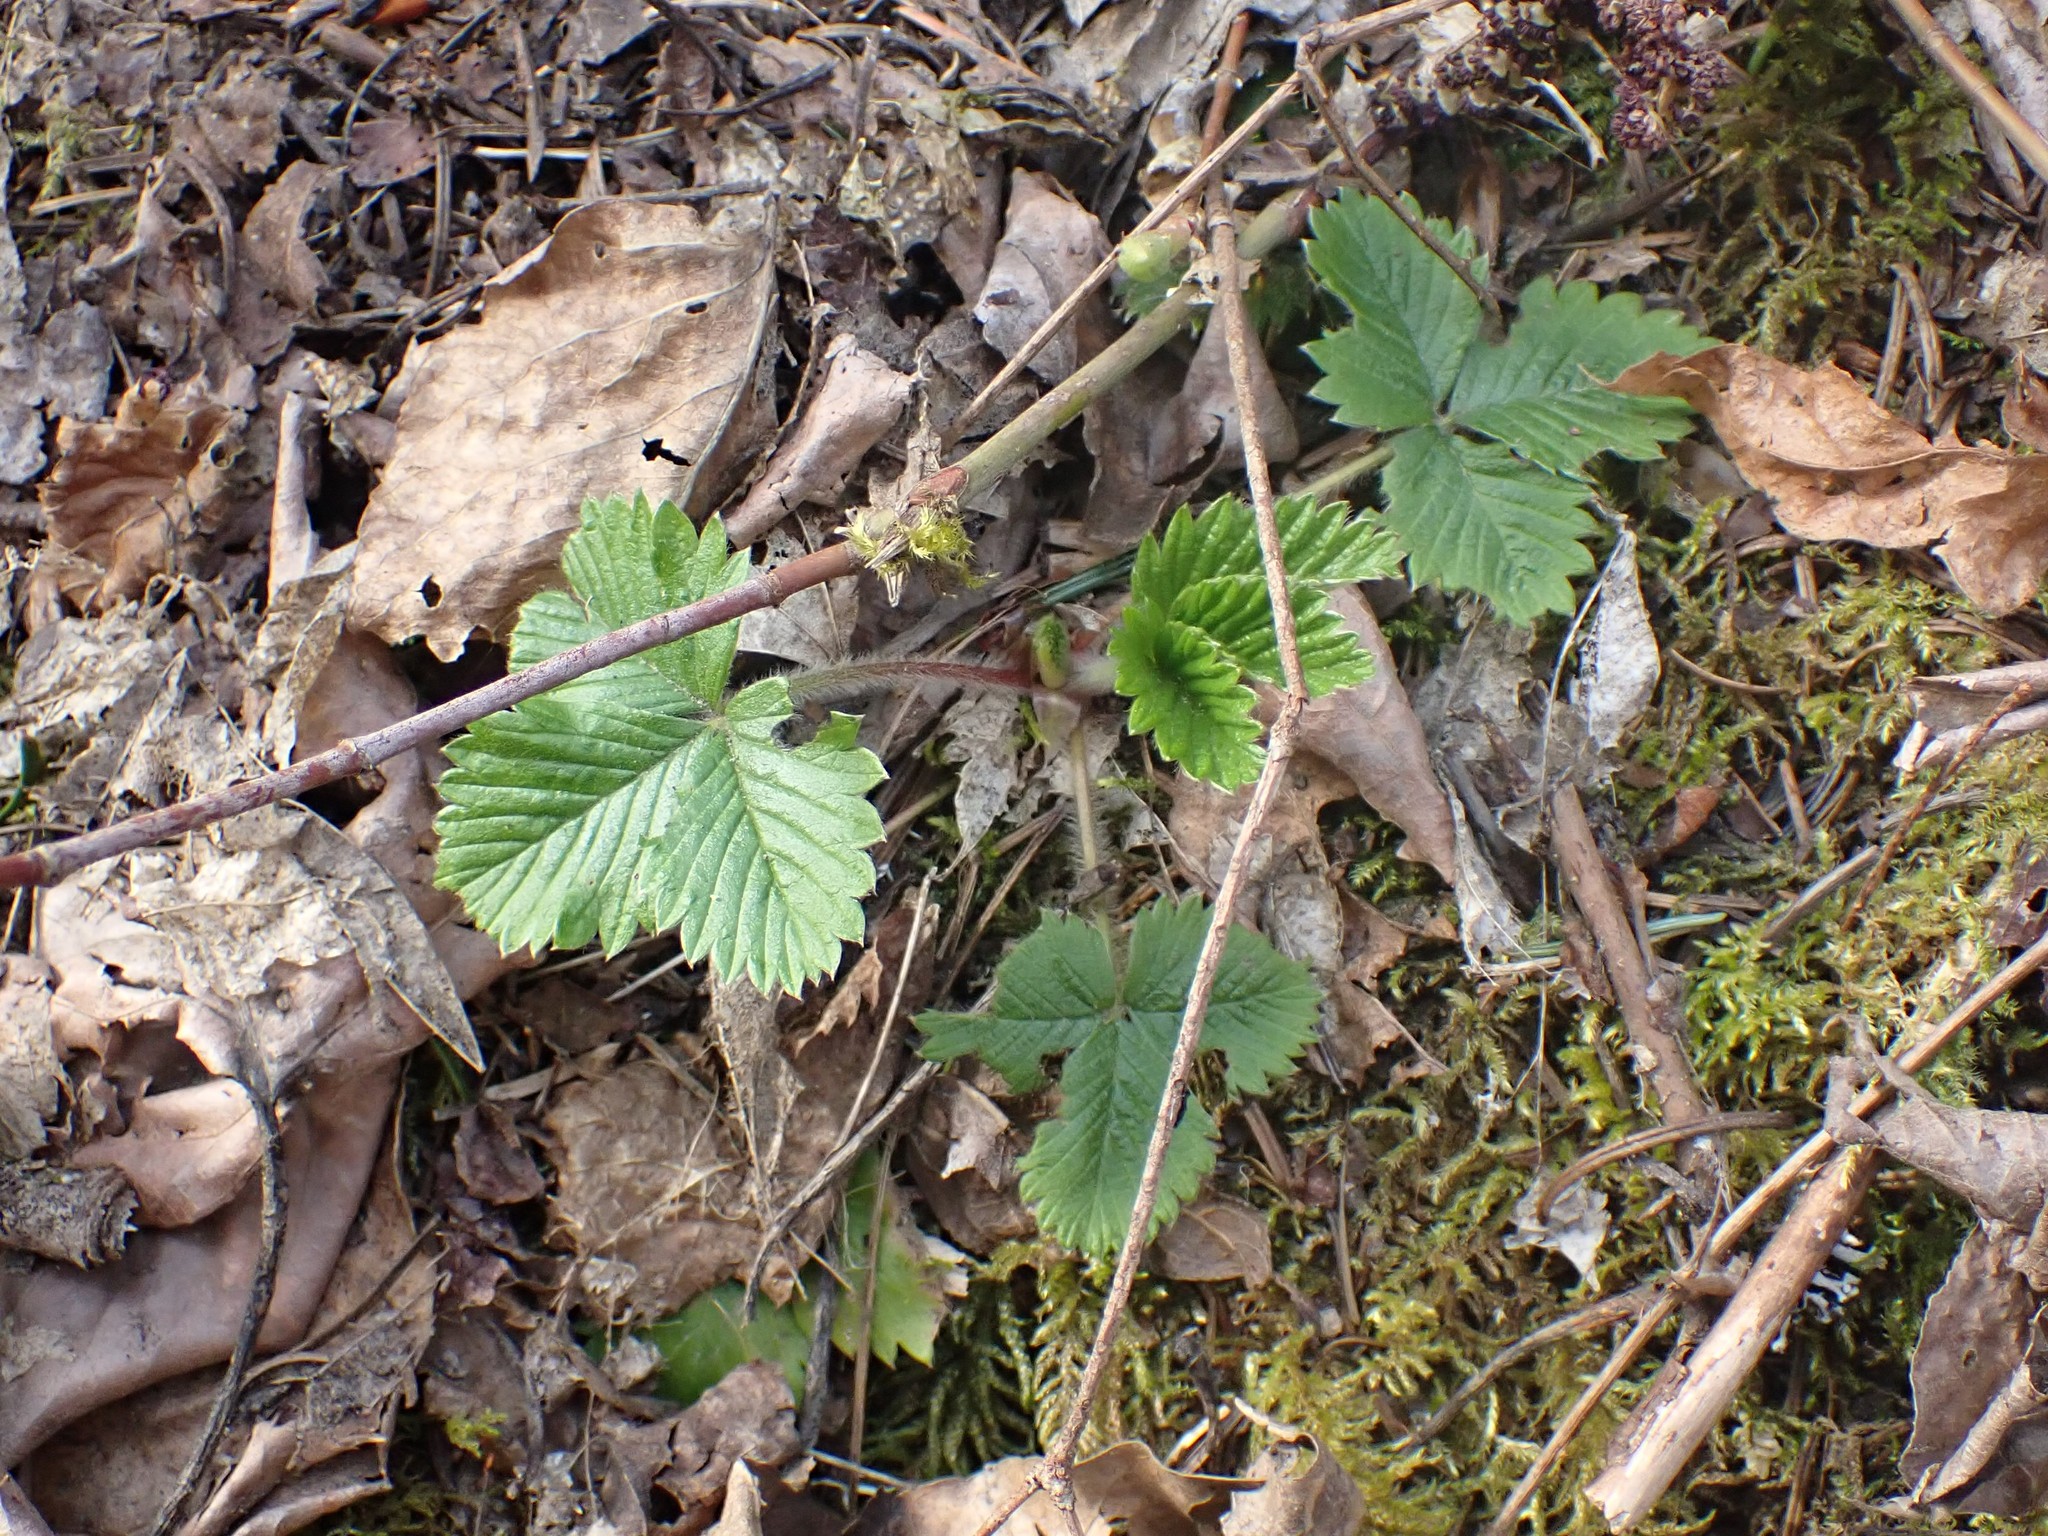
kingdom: Plantae
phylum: Tracheophyta
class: Magnoliopsida
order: Rosales
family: Rosaceae
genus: Fragaria
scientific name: Fragaria vesca
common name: Wild strawberry
